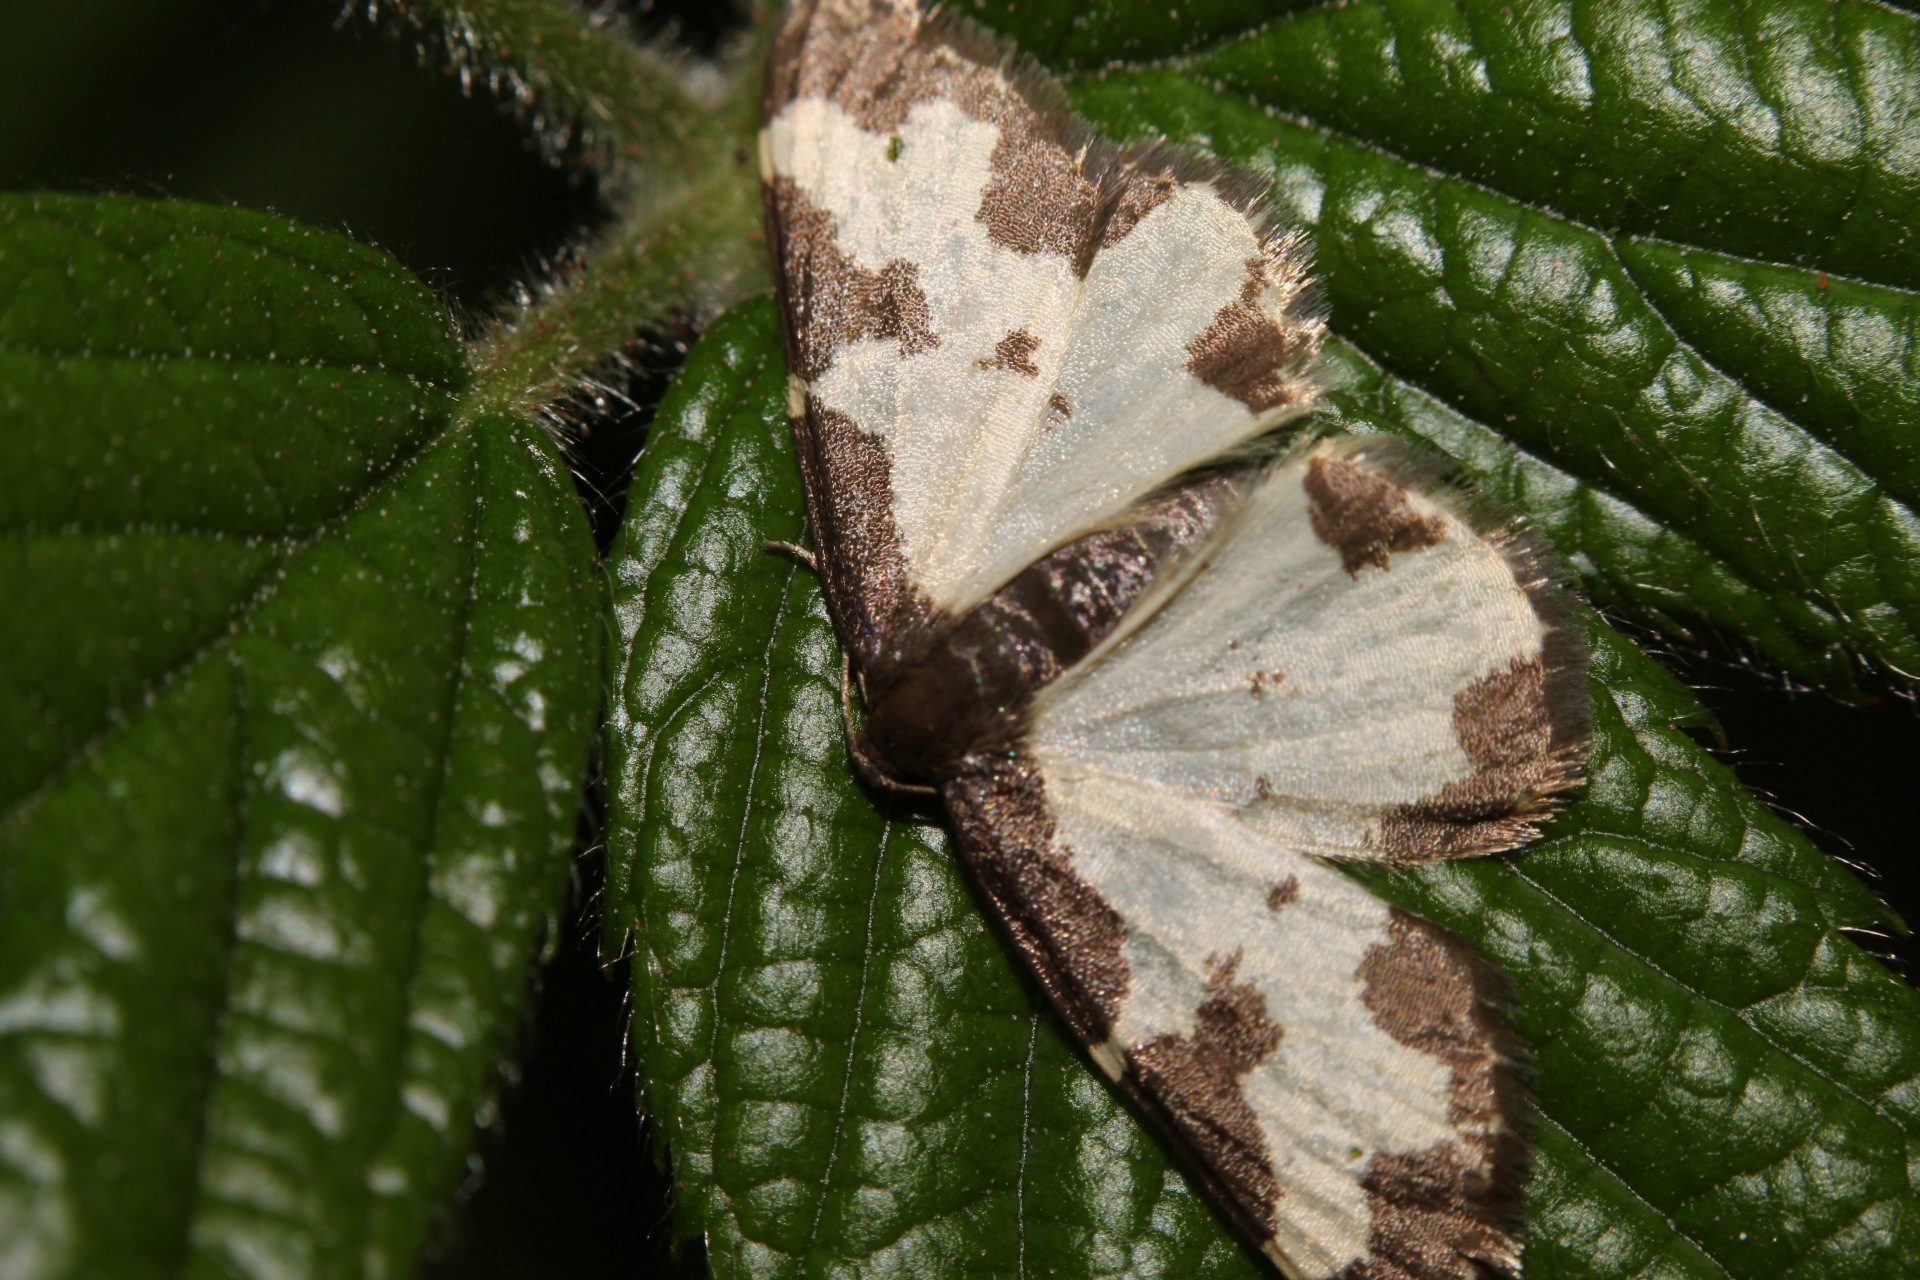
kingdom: Animalia
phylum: Arthropoda
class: Insecta
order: Lepidoptera
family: Geometridae
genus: Lomaspilis
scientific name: Lomaspilis marginata
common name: Clouded border
